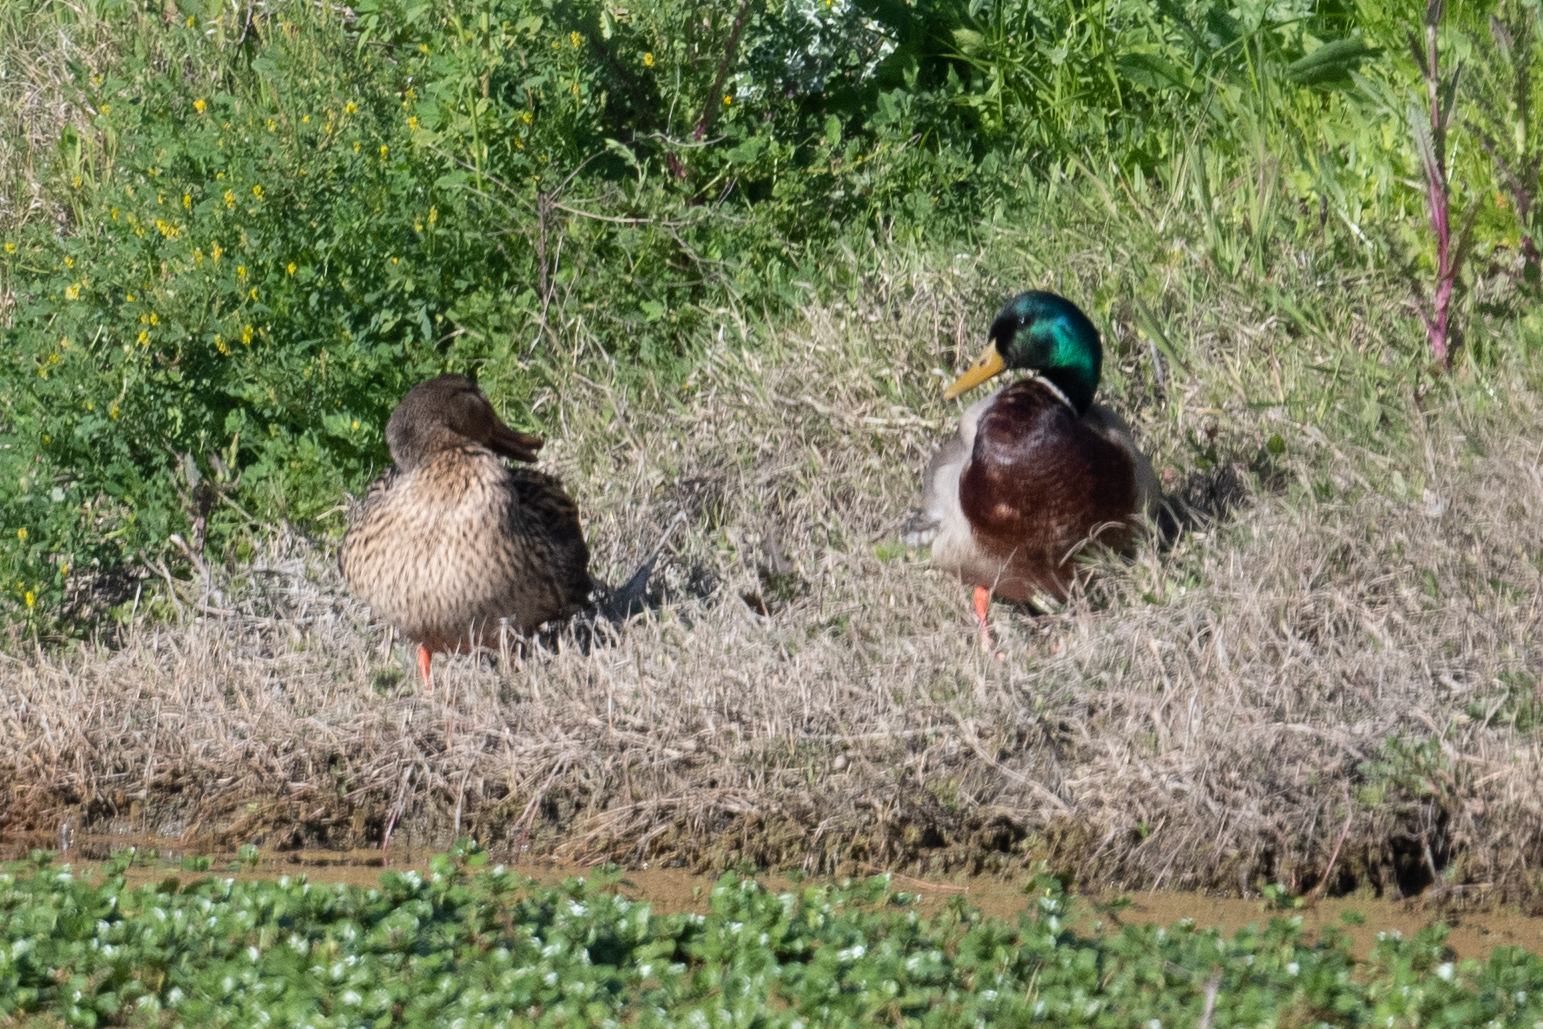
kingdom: Animalia
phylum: Chordata
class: Aves
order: Anseriformes
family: Anatidae
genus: Anas
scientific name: Anas platyrhynchos
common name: Mallard
